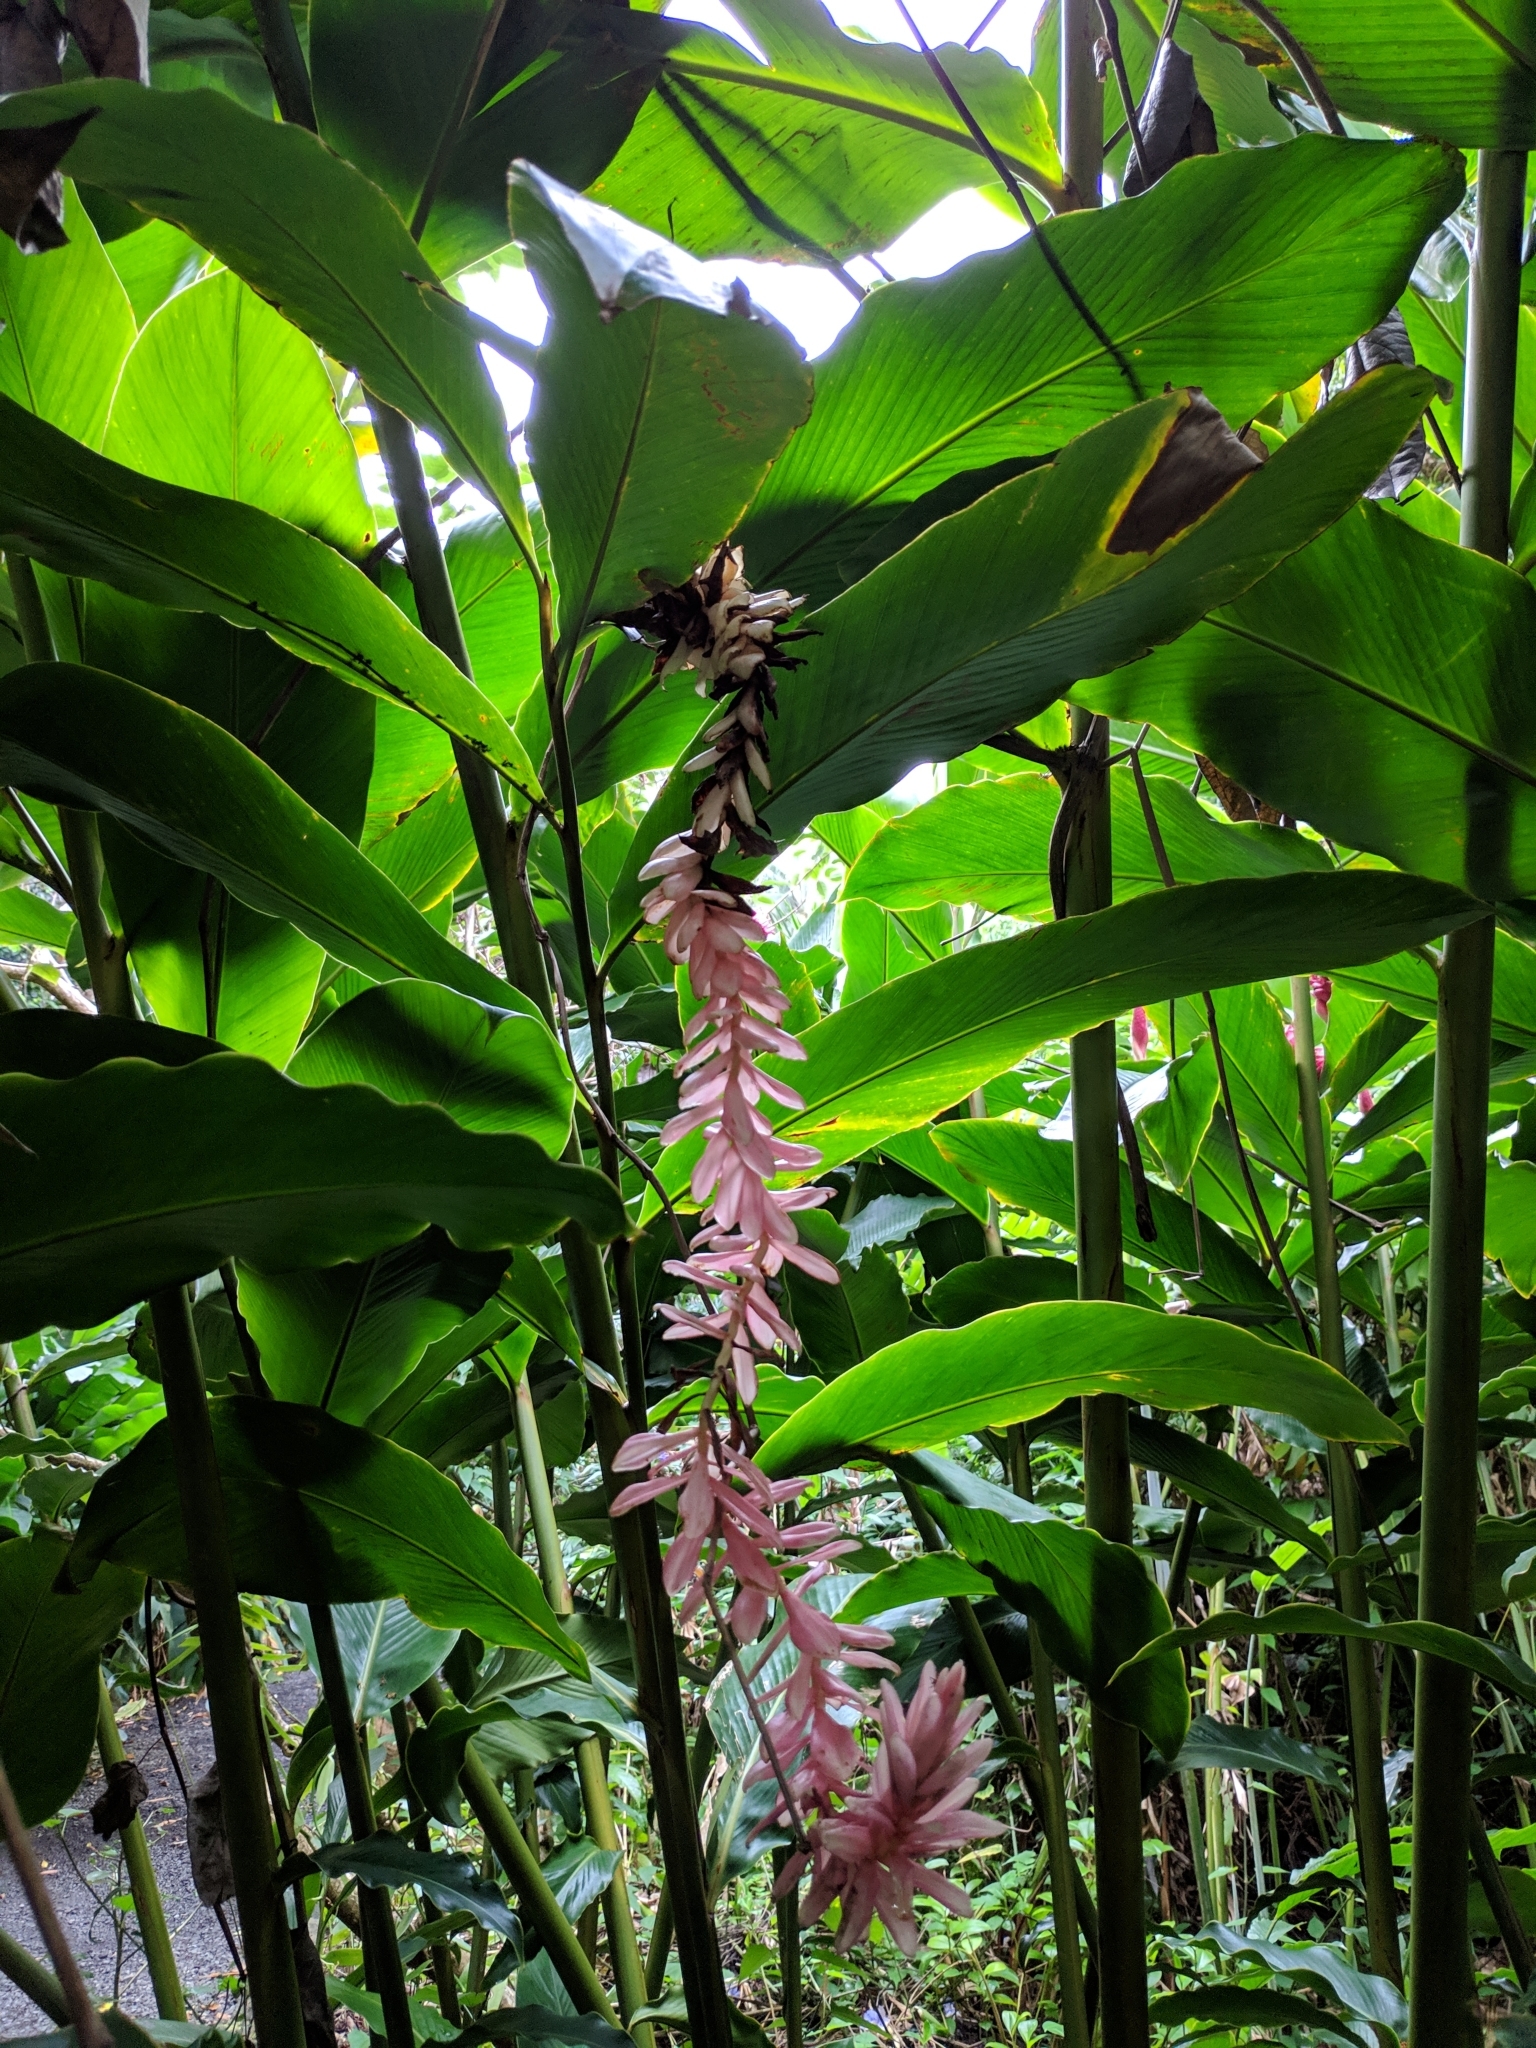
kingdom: Plantae
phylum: Tracheophyta
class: Liliopsida
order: Zingiberales
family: Zingiberaceae
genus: Alpinia
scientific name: Alpinia purpurata
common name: Red ginger
